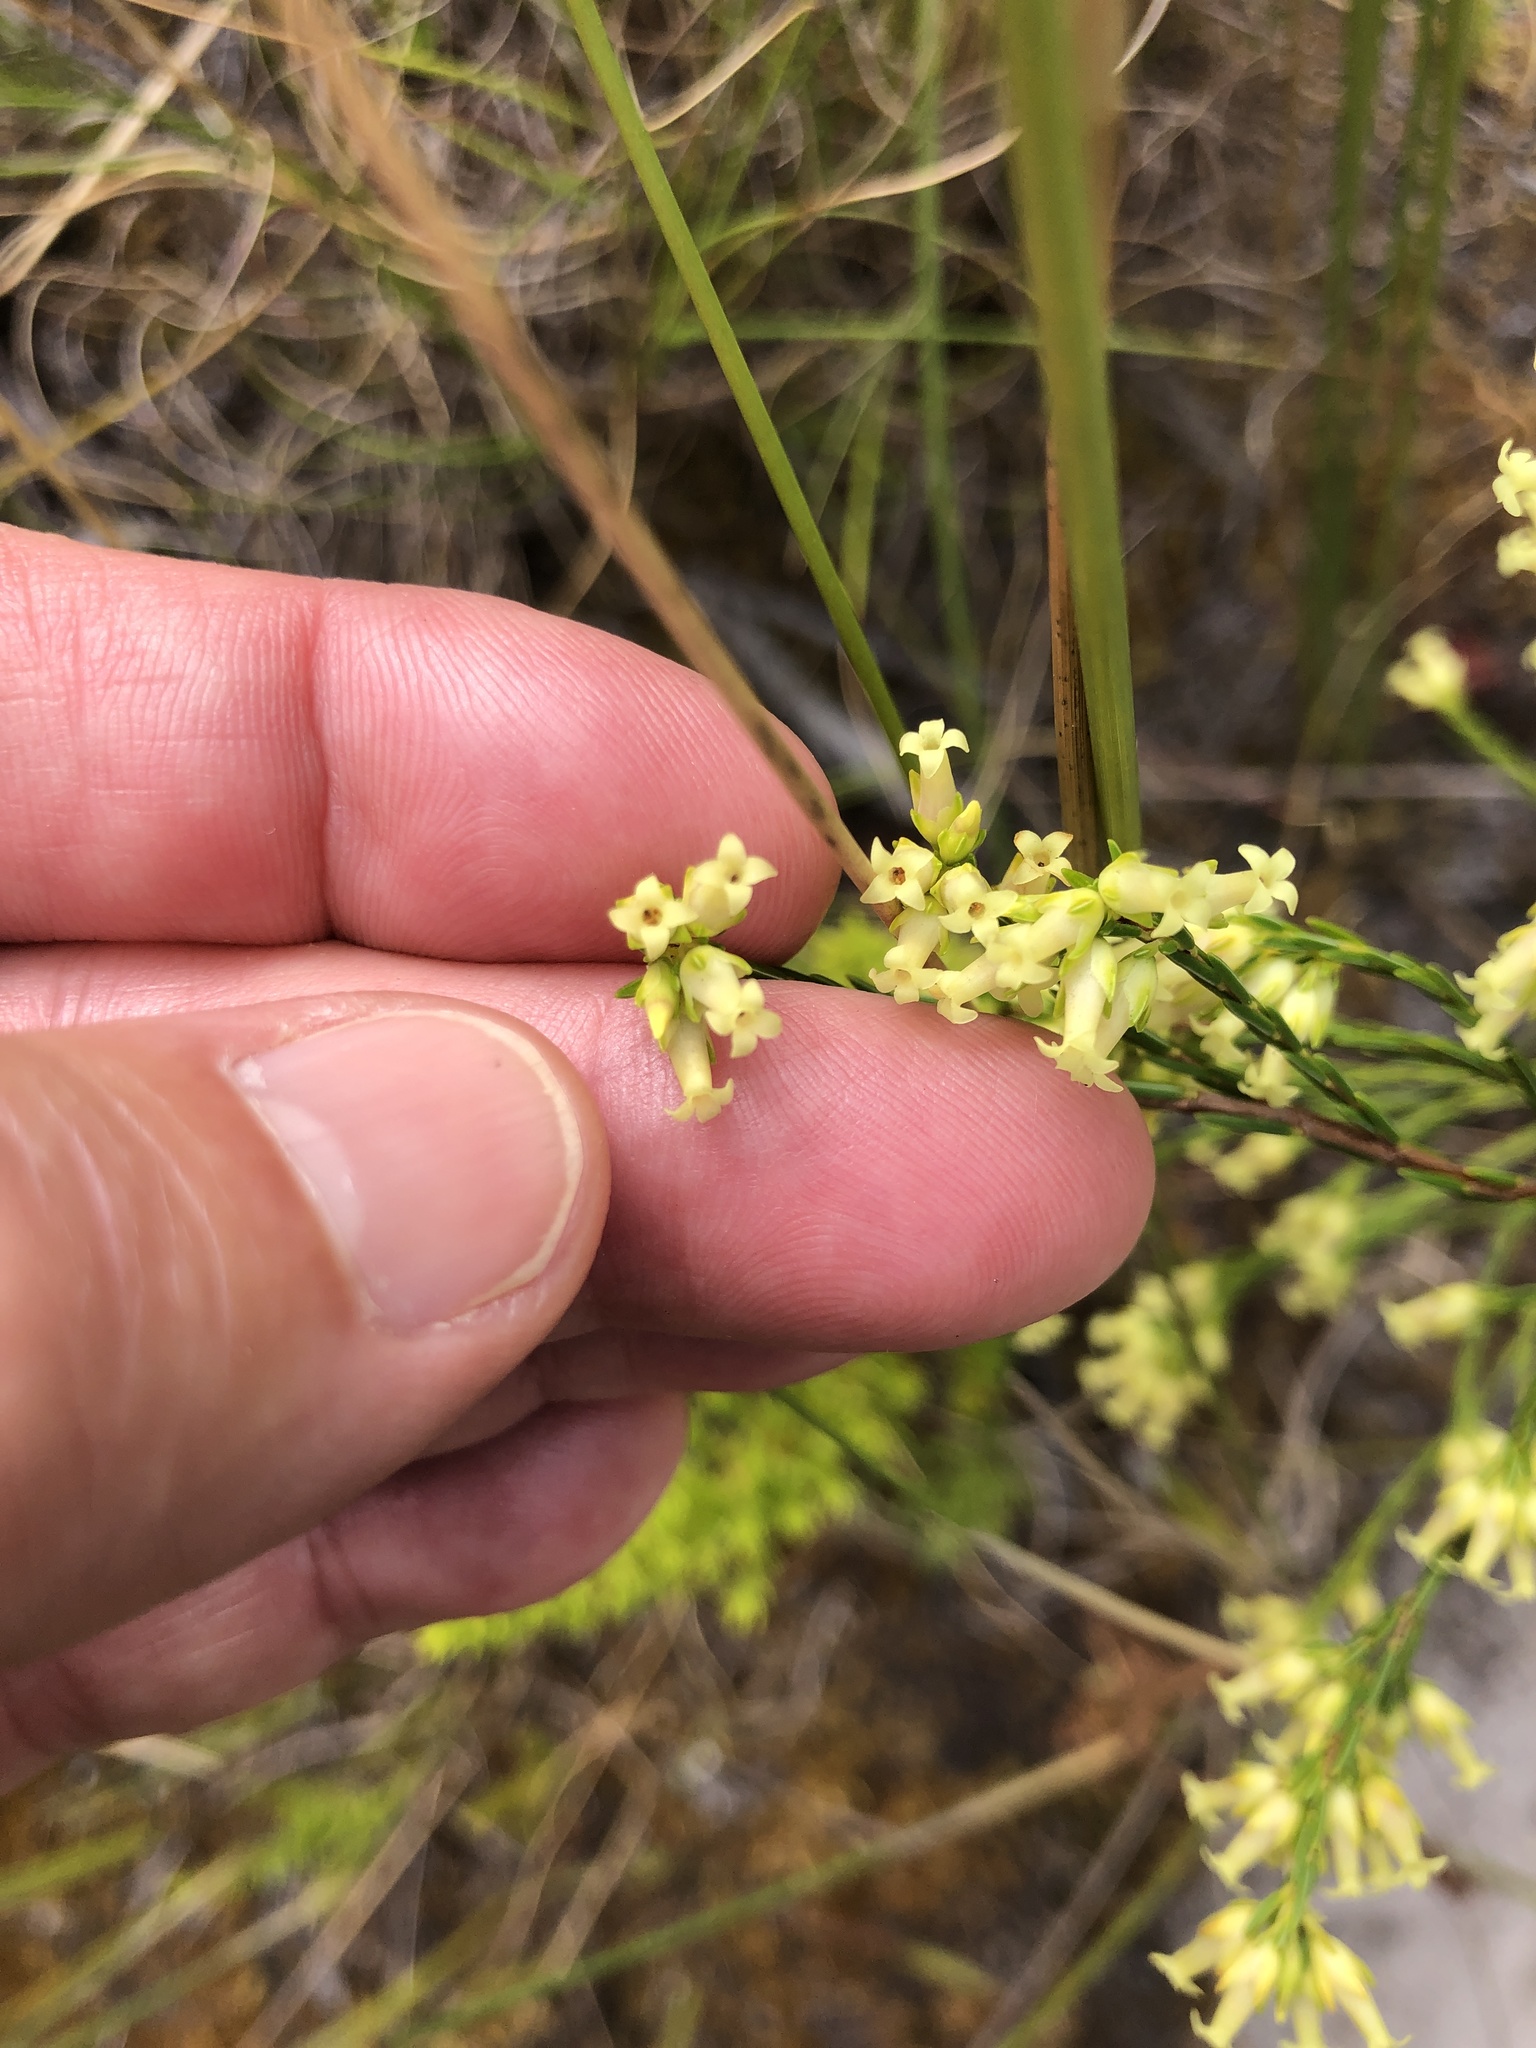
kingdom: Plantae
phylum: Tracheophyta
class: Magnoliopsida
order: Ericales
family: Ericaceae
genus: Erica
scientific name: Erica lutea
